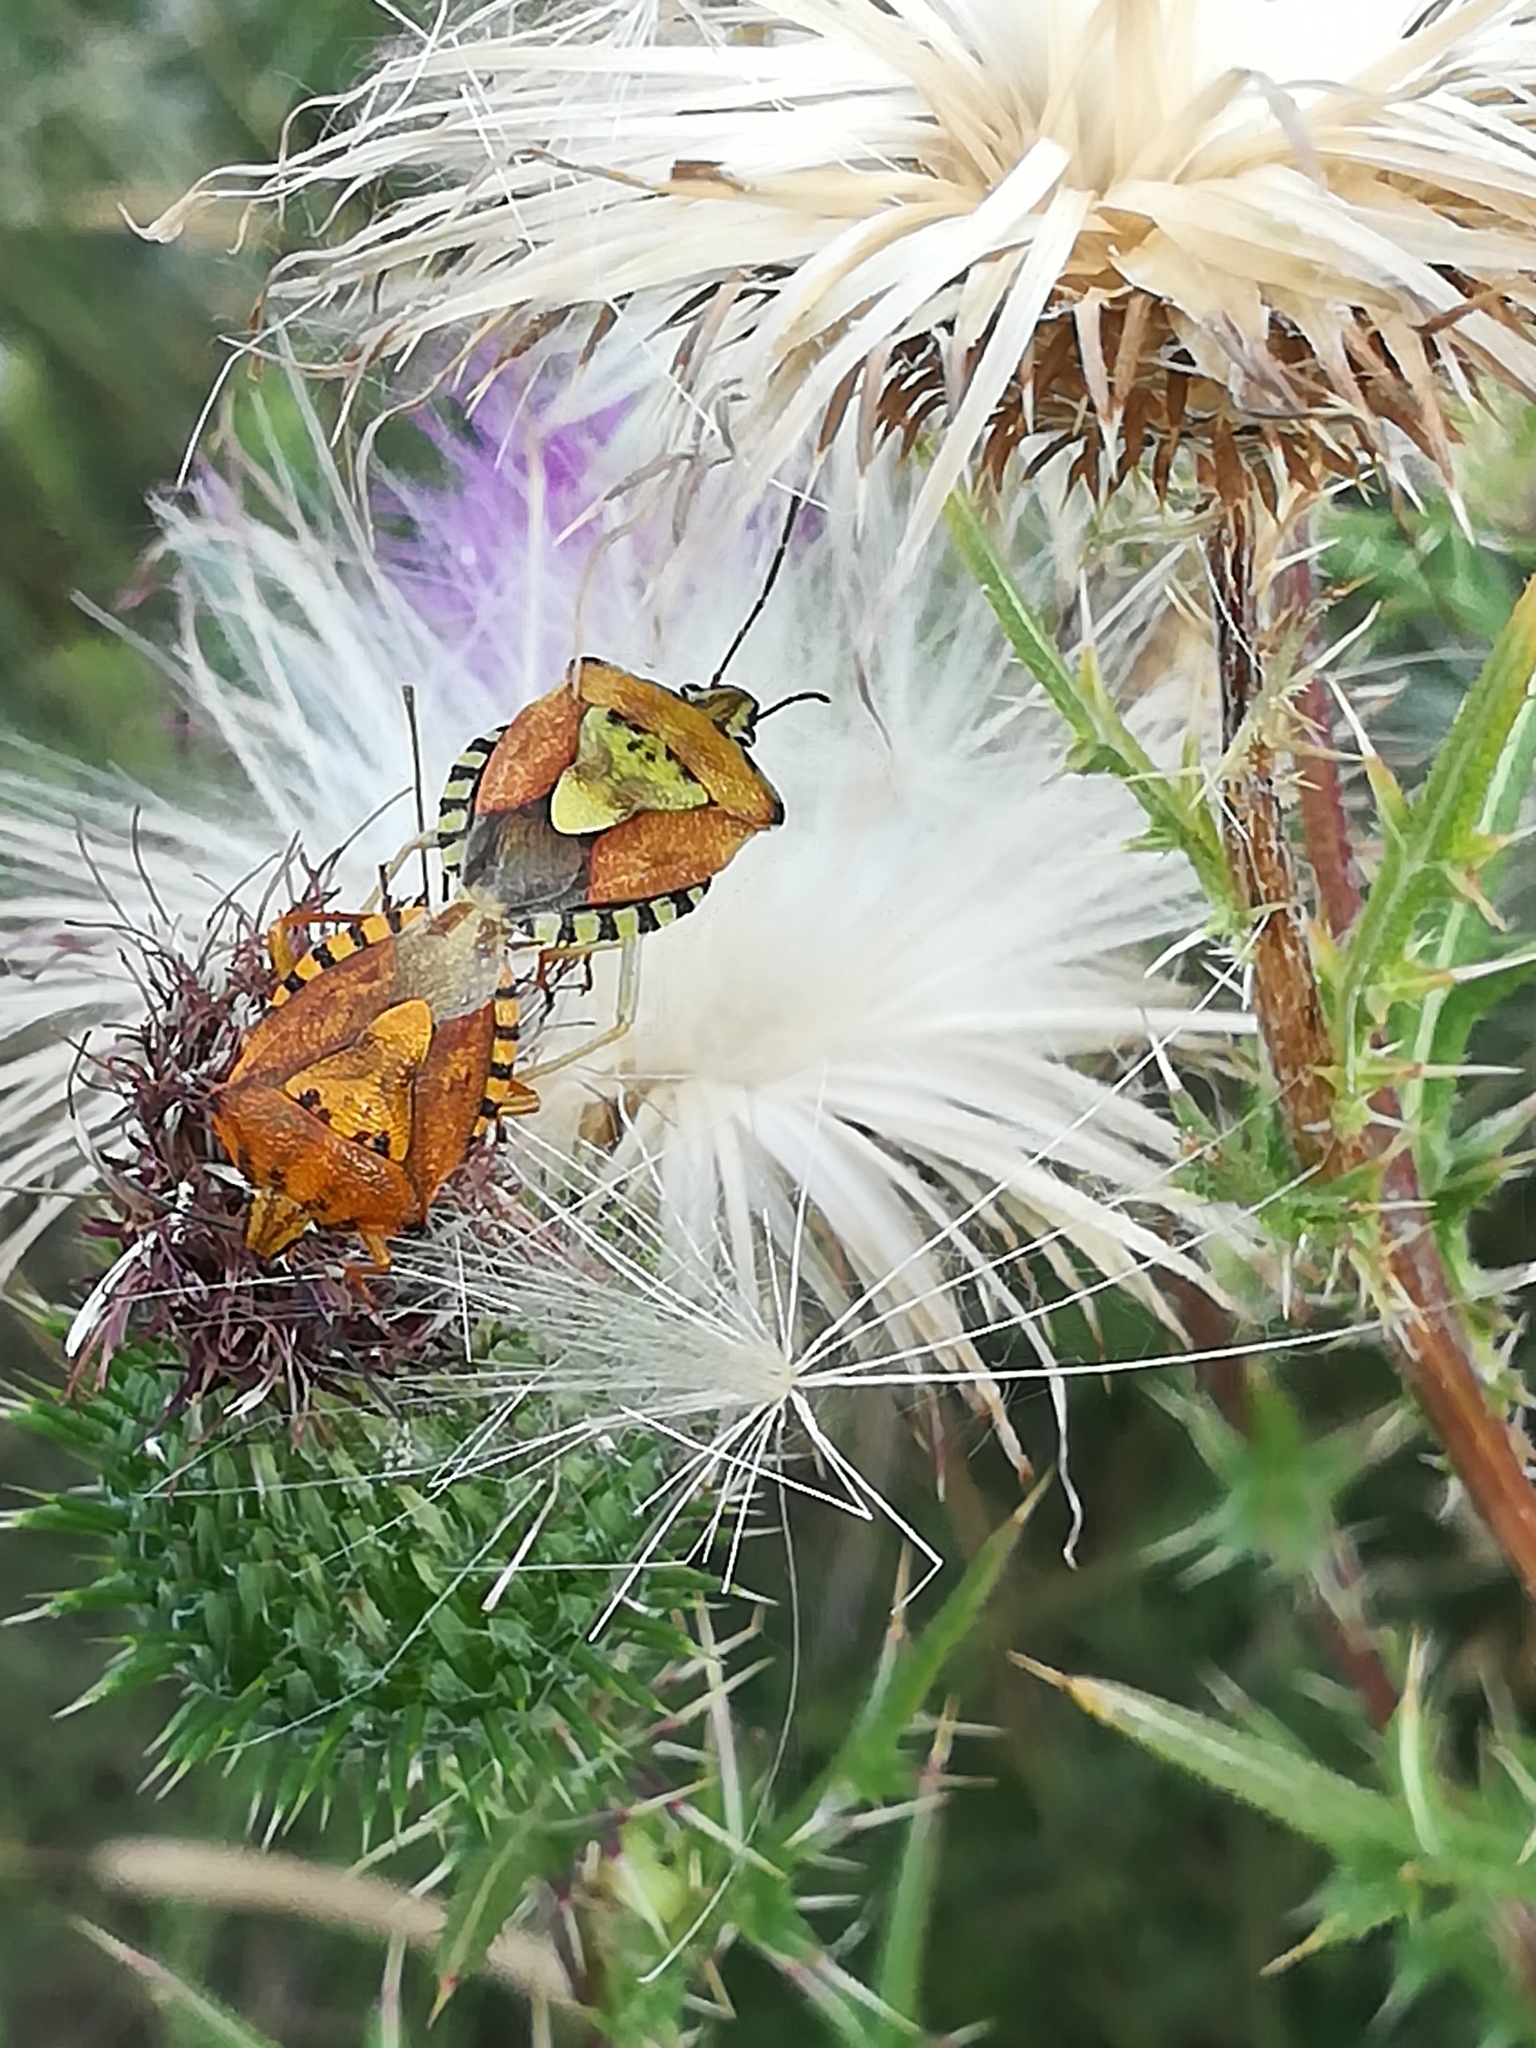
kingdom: Animalia
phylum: Arthropoda
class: Insecta
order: Hemiptera
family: Pentatomidae
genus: Carpocoris
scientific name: Carpocoris purpureipennis
